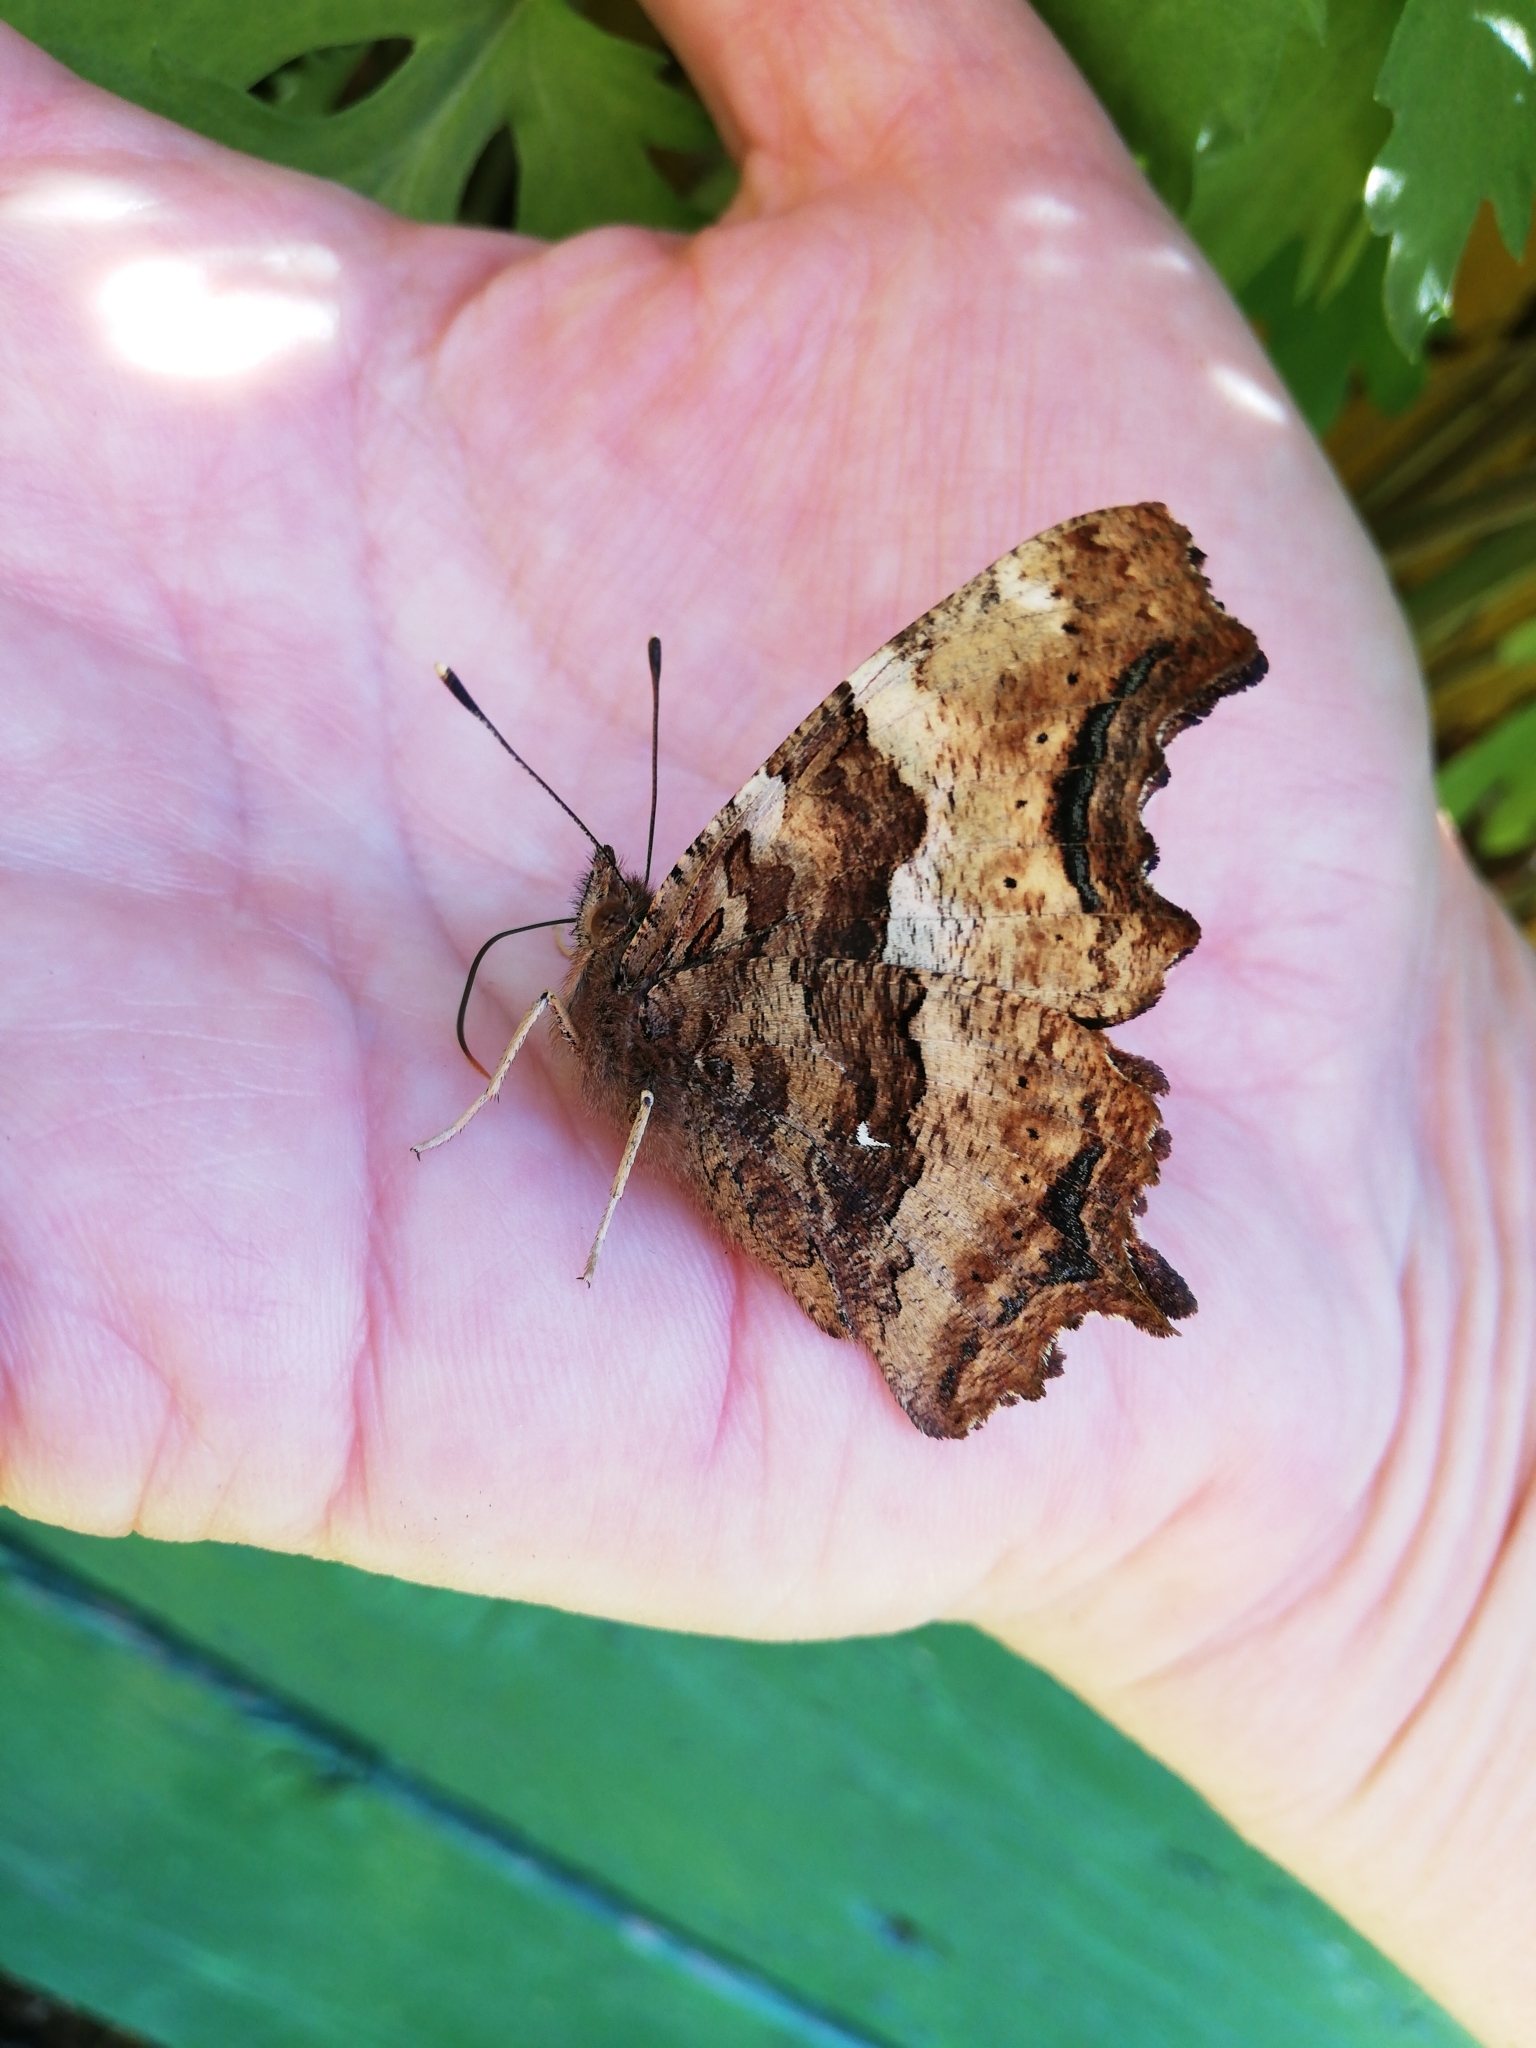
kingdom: Animalia
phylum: Arthropoda
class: Insecta
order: Lepidoptera
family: Nymphalidae
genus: Polygonia
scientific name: Polygonia vaualbum
